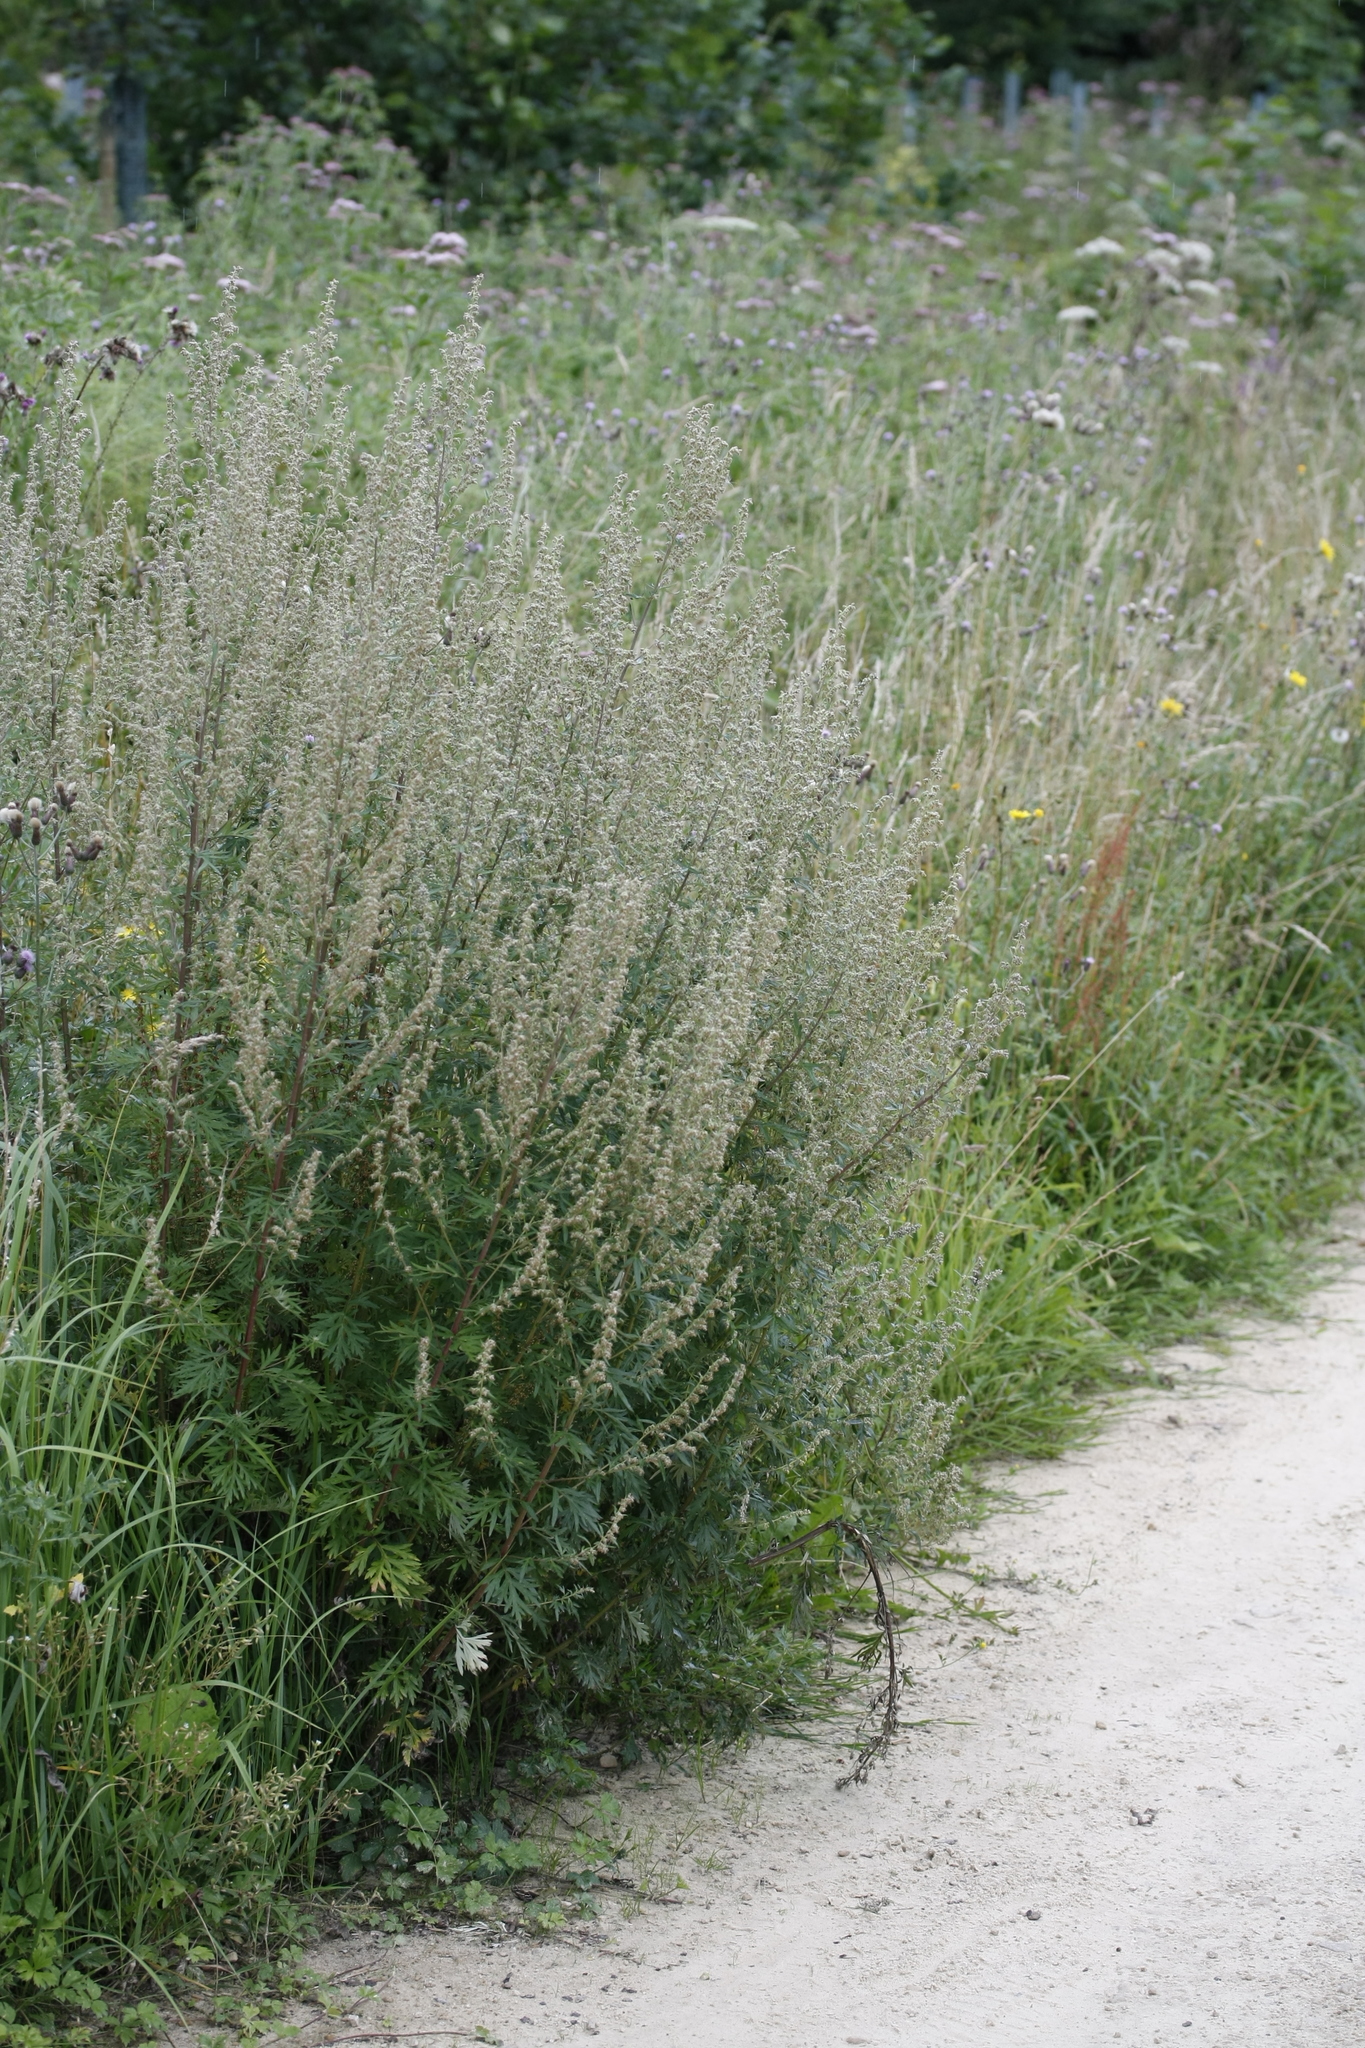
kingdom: Plantae
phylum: Tracheophyta
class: Magnoliopsida
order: Asterales
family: Asteraceae
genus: Artemisia
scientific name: Artemisia vulgaris
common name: Mugwort
